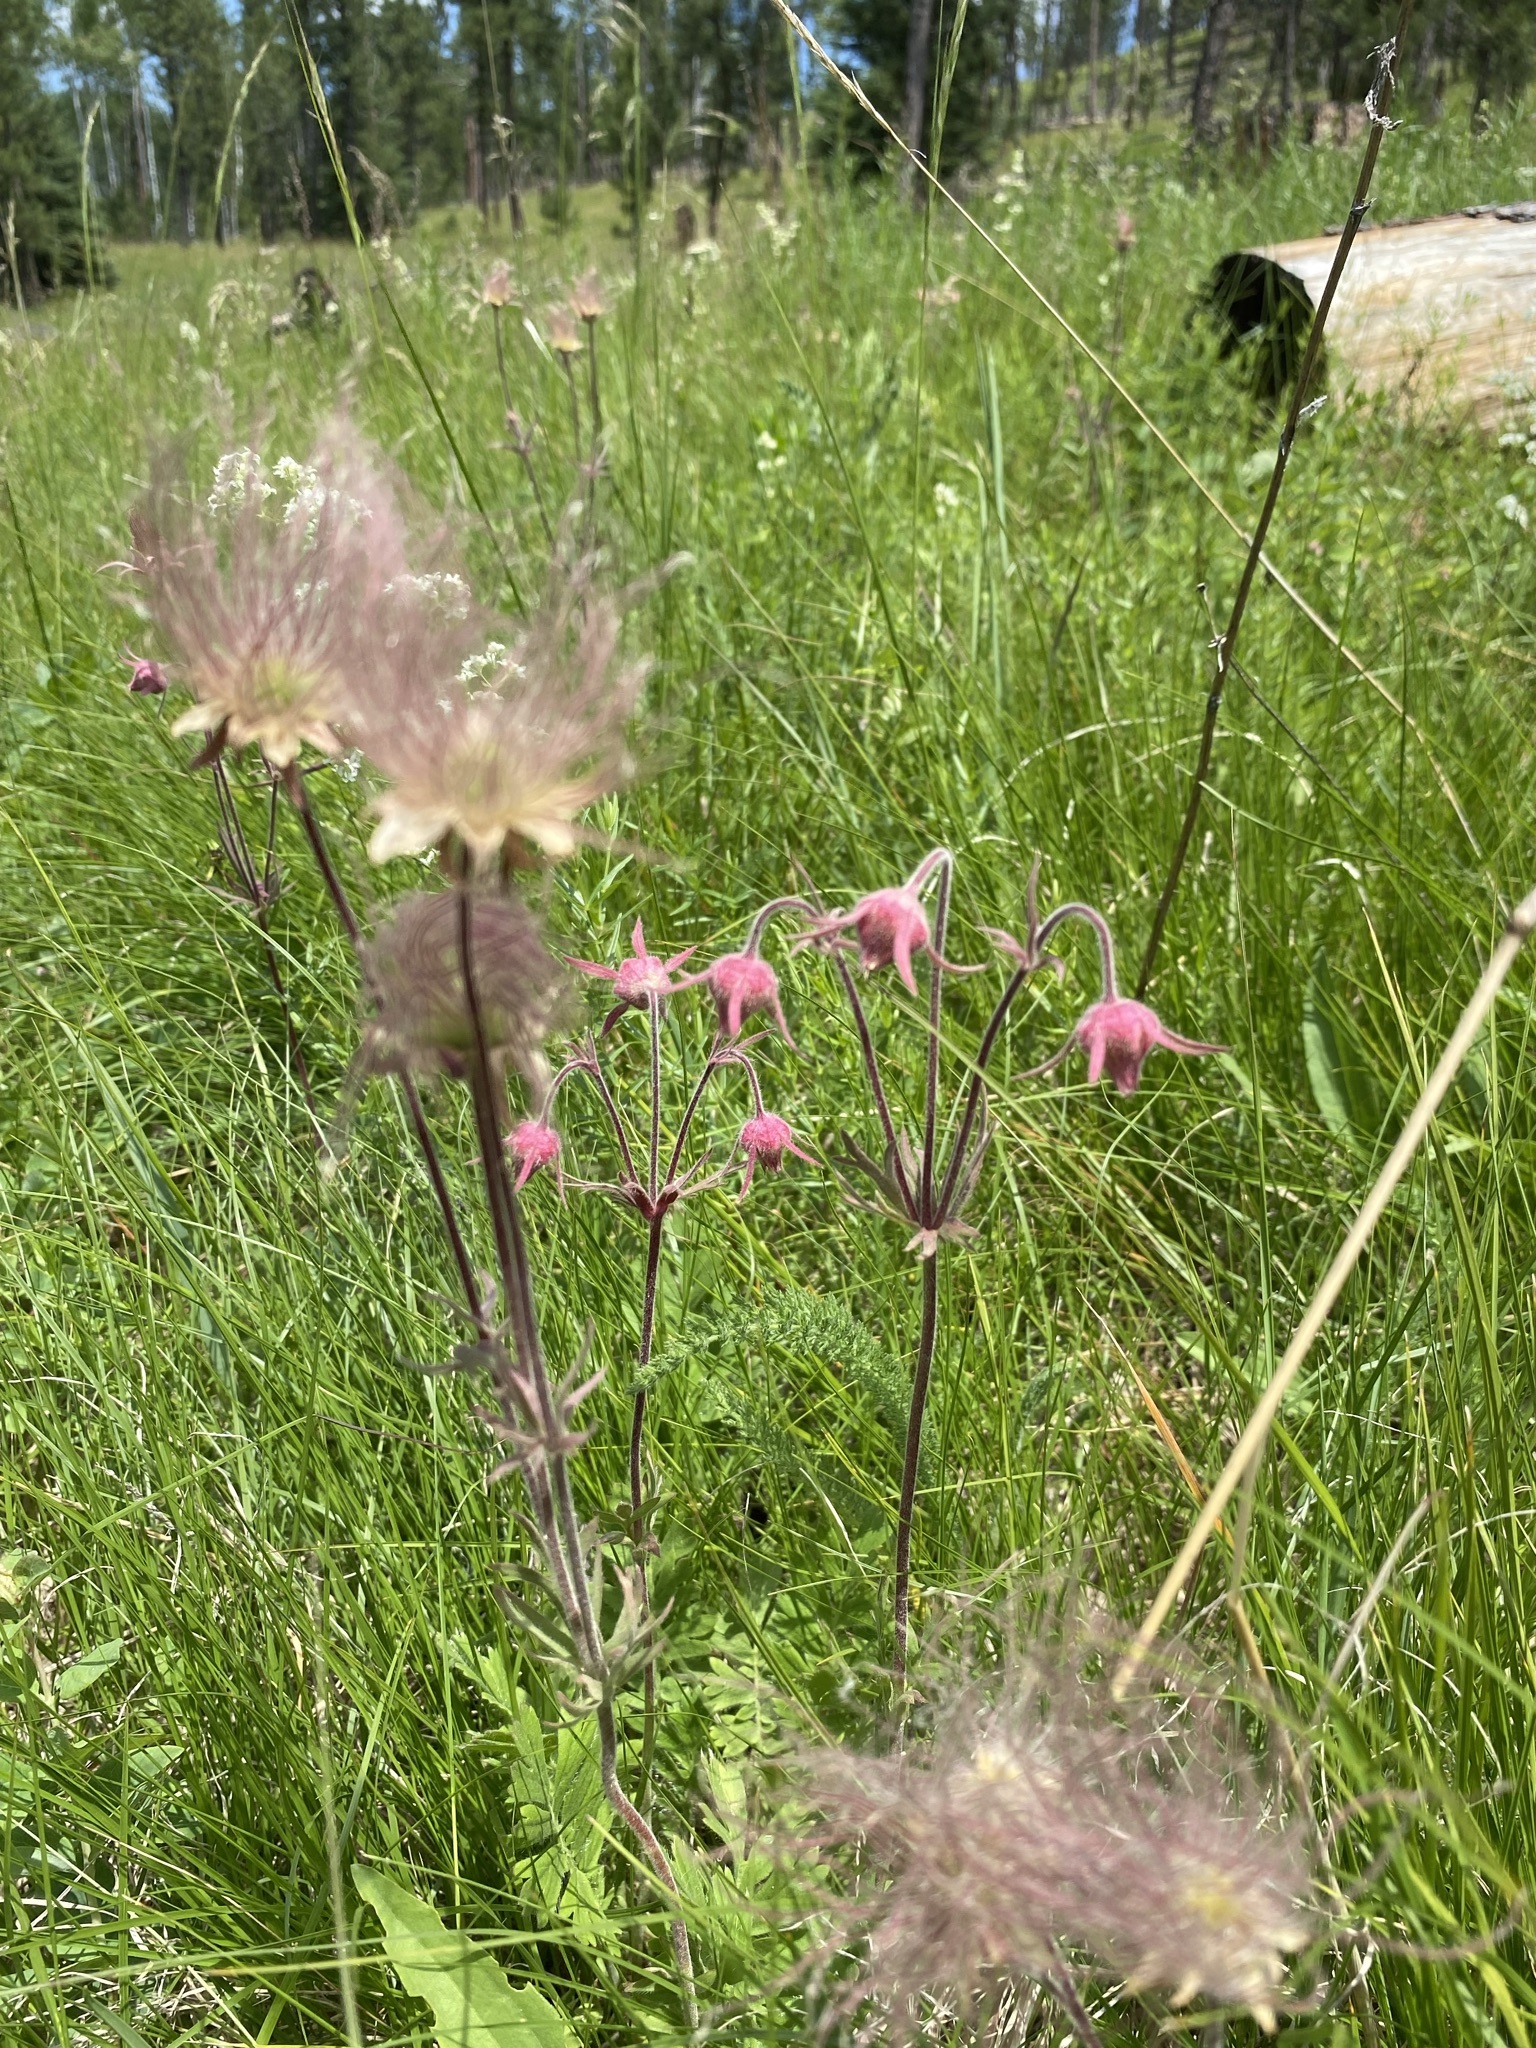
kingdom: Plantae
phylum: Tracheophyta
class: Magnoliopsida
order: Rosales
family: Rosaceae
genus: Geum
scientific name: Geum triflorum
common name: Old man's whiskers
